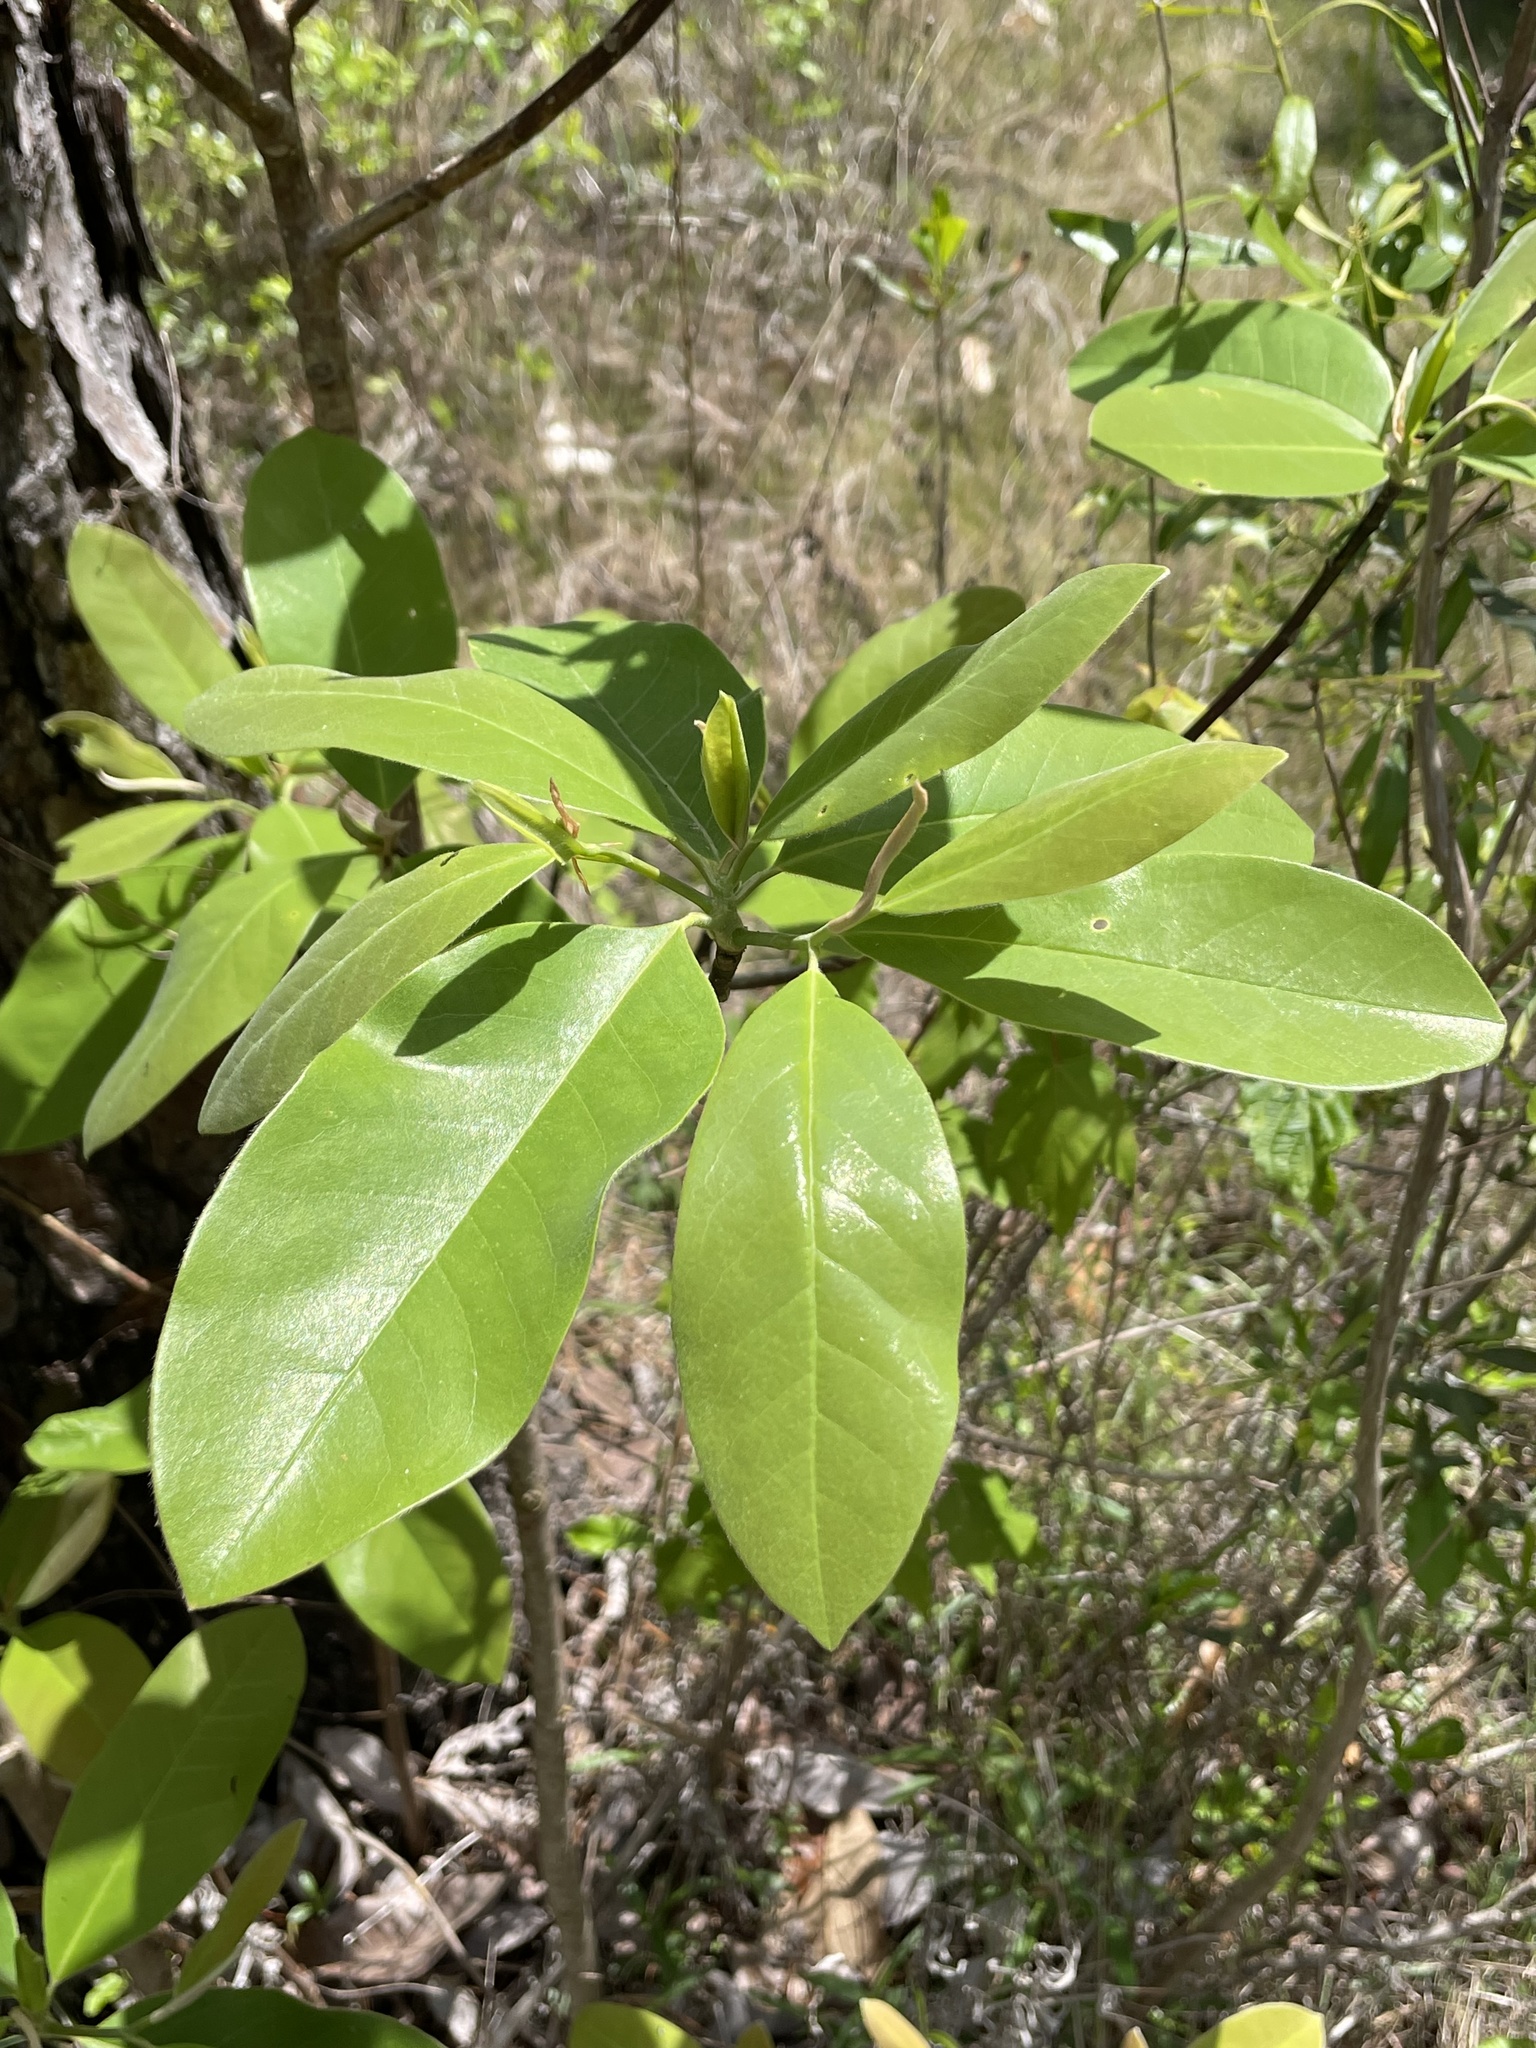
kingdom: Plantae
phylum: Tracheophyta
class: Magnoliopsida
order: Magnoliales
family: Magnoliaceae
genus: Magnolia
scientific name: Magnolia virginiana
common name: Swamp bay
